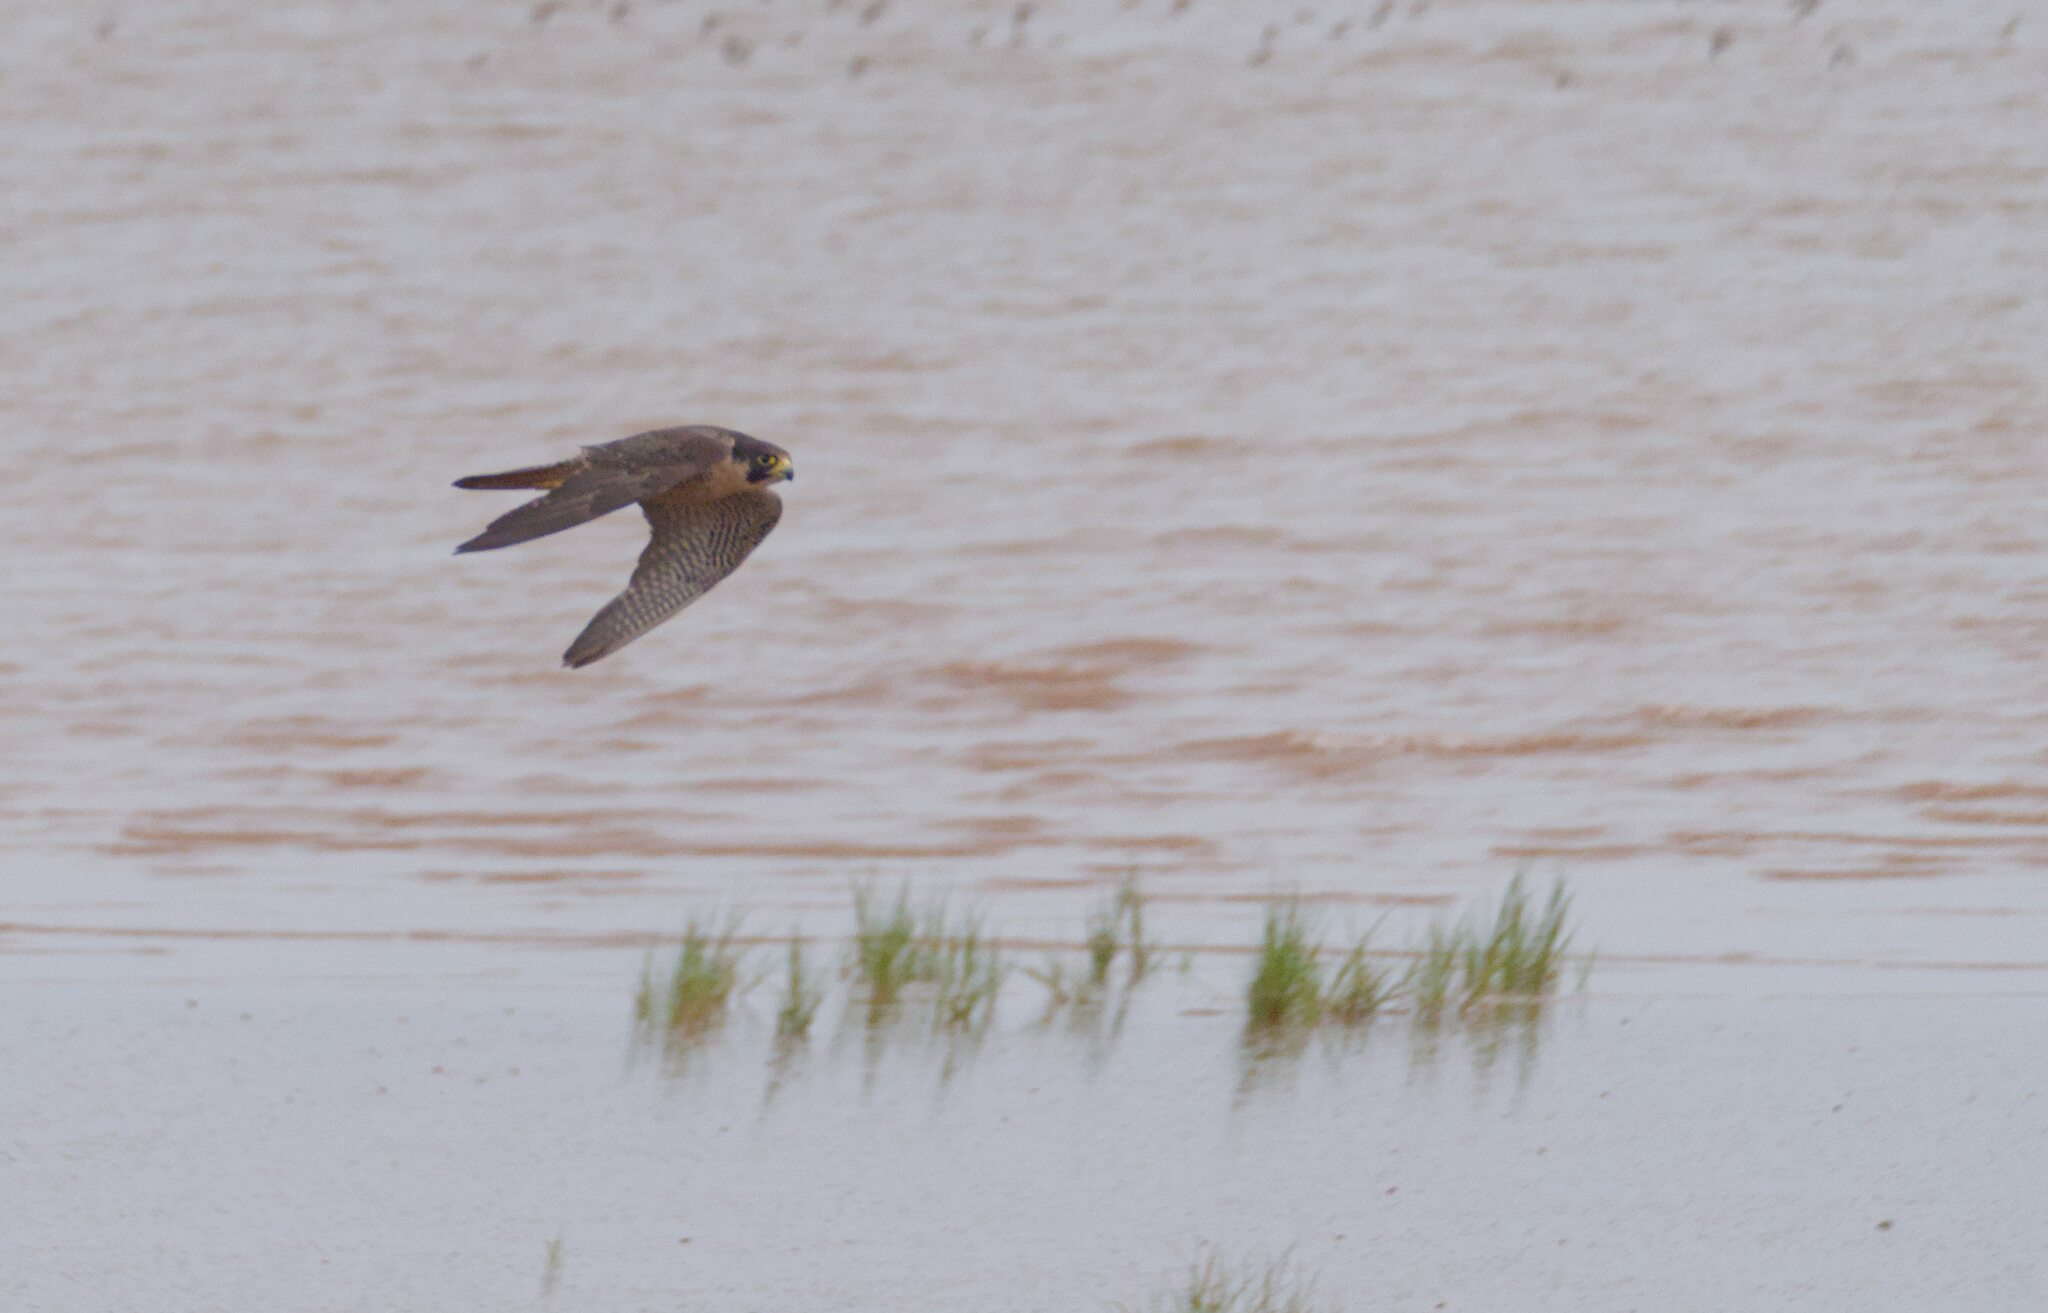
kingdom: Animalia
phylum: Chordata
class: Aves
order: Falconiformes
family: Falconidae
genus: Falco
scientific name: Falco peregrinus
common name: Peregrine falcon
